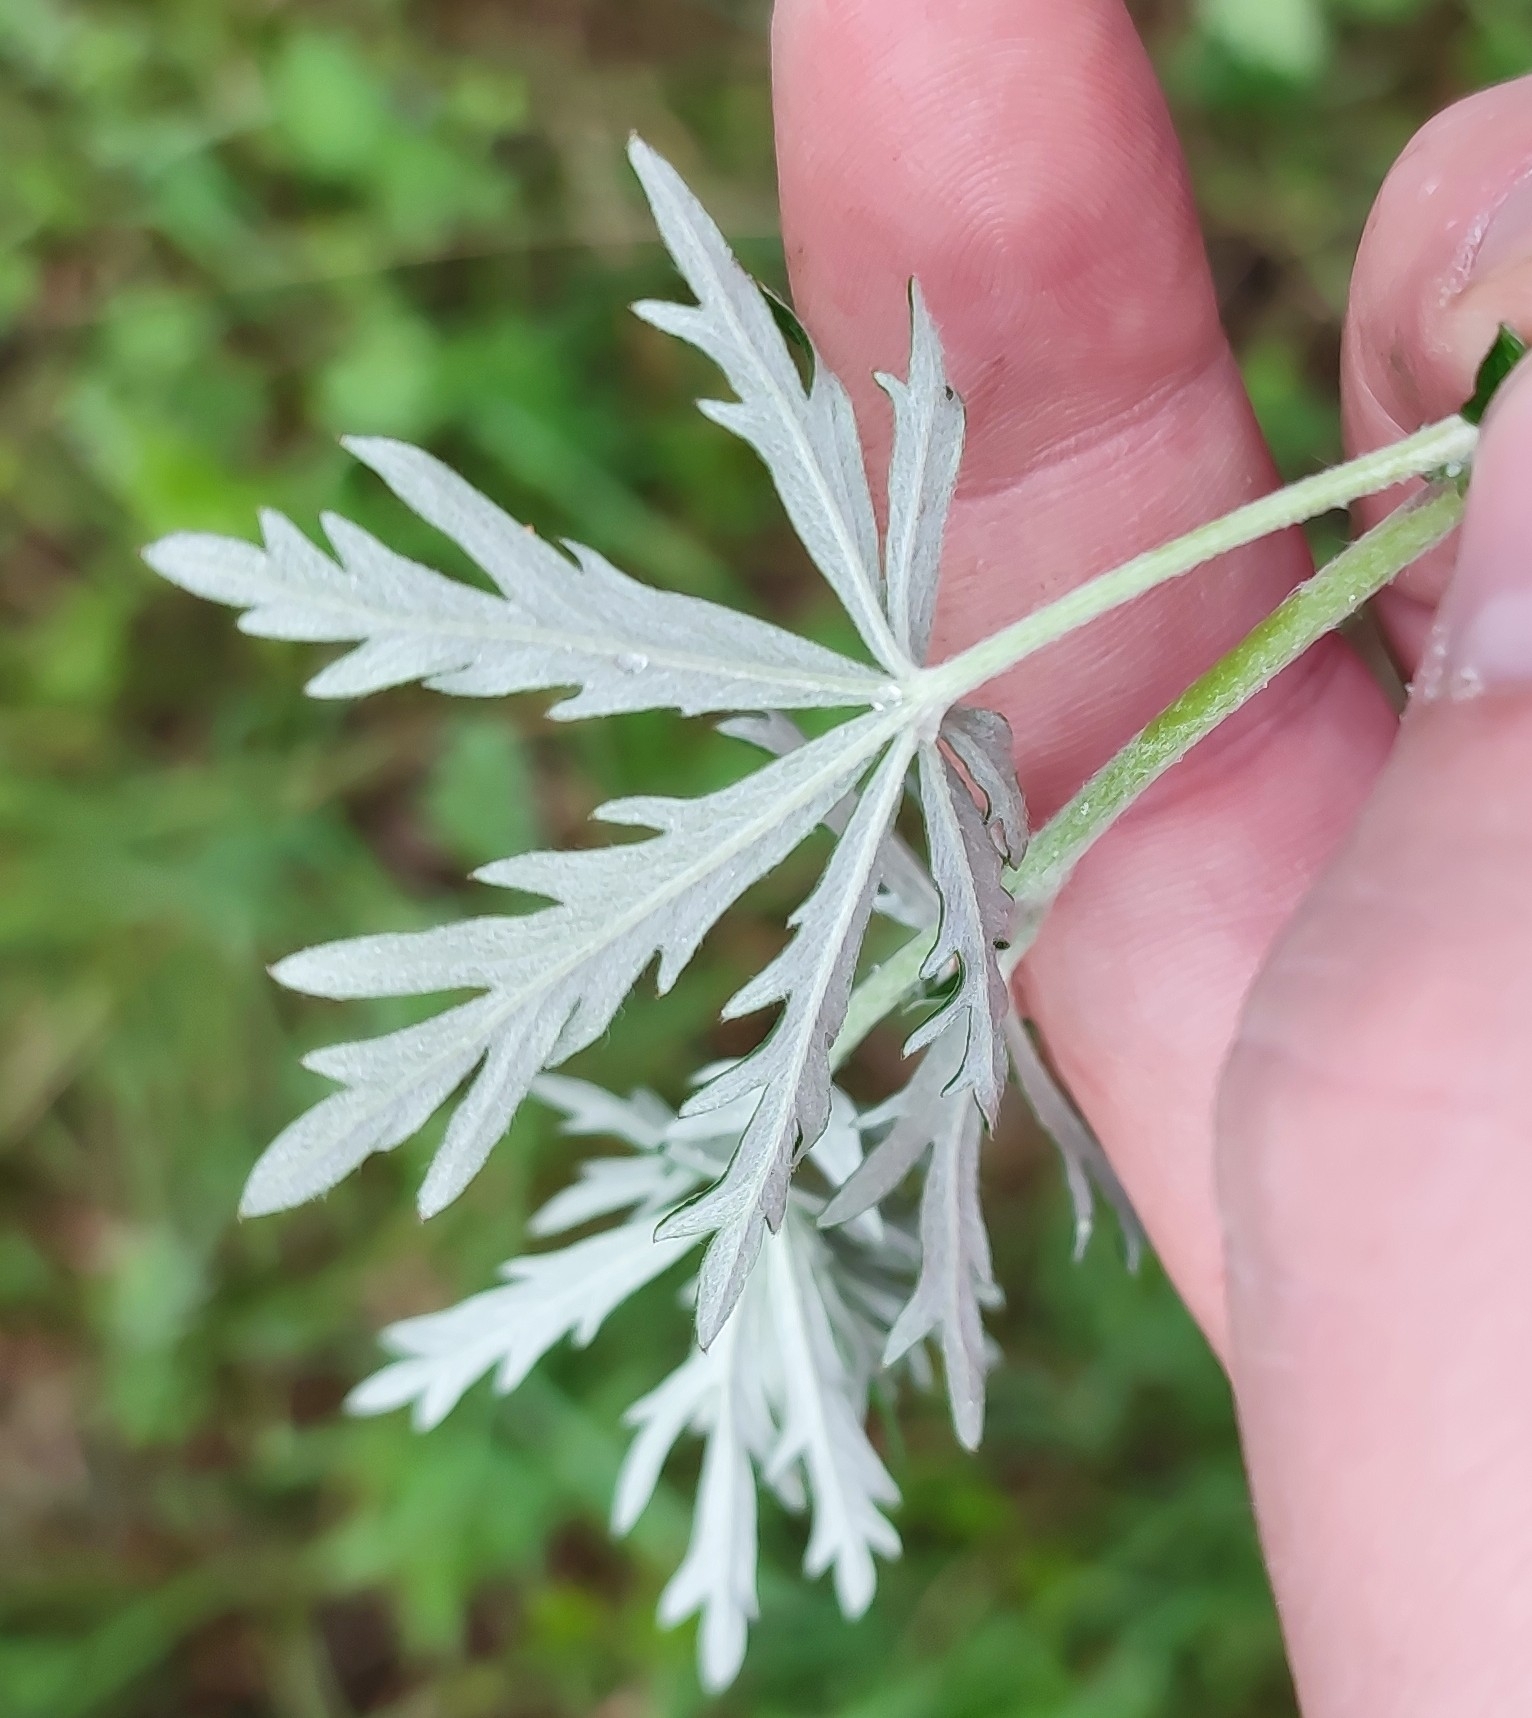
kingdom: Plantae
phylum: Tracheophyta
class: Magnoliopsida
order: Rosales
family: Rosaceae
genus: Potentilla
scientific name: Potentilla argentea
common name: Hoary cinquefoil
